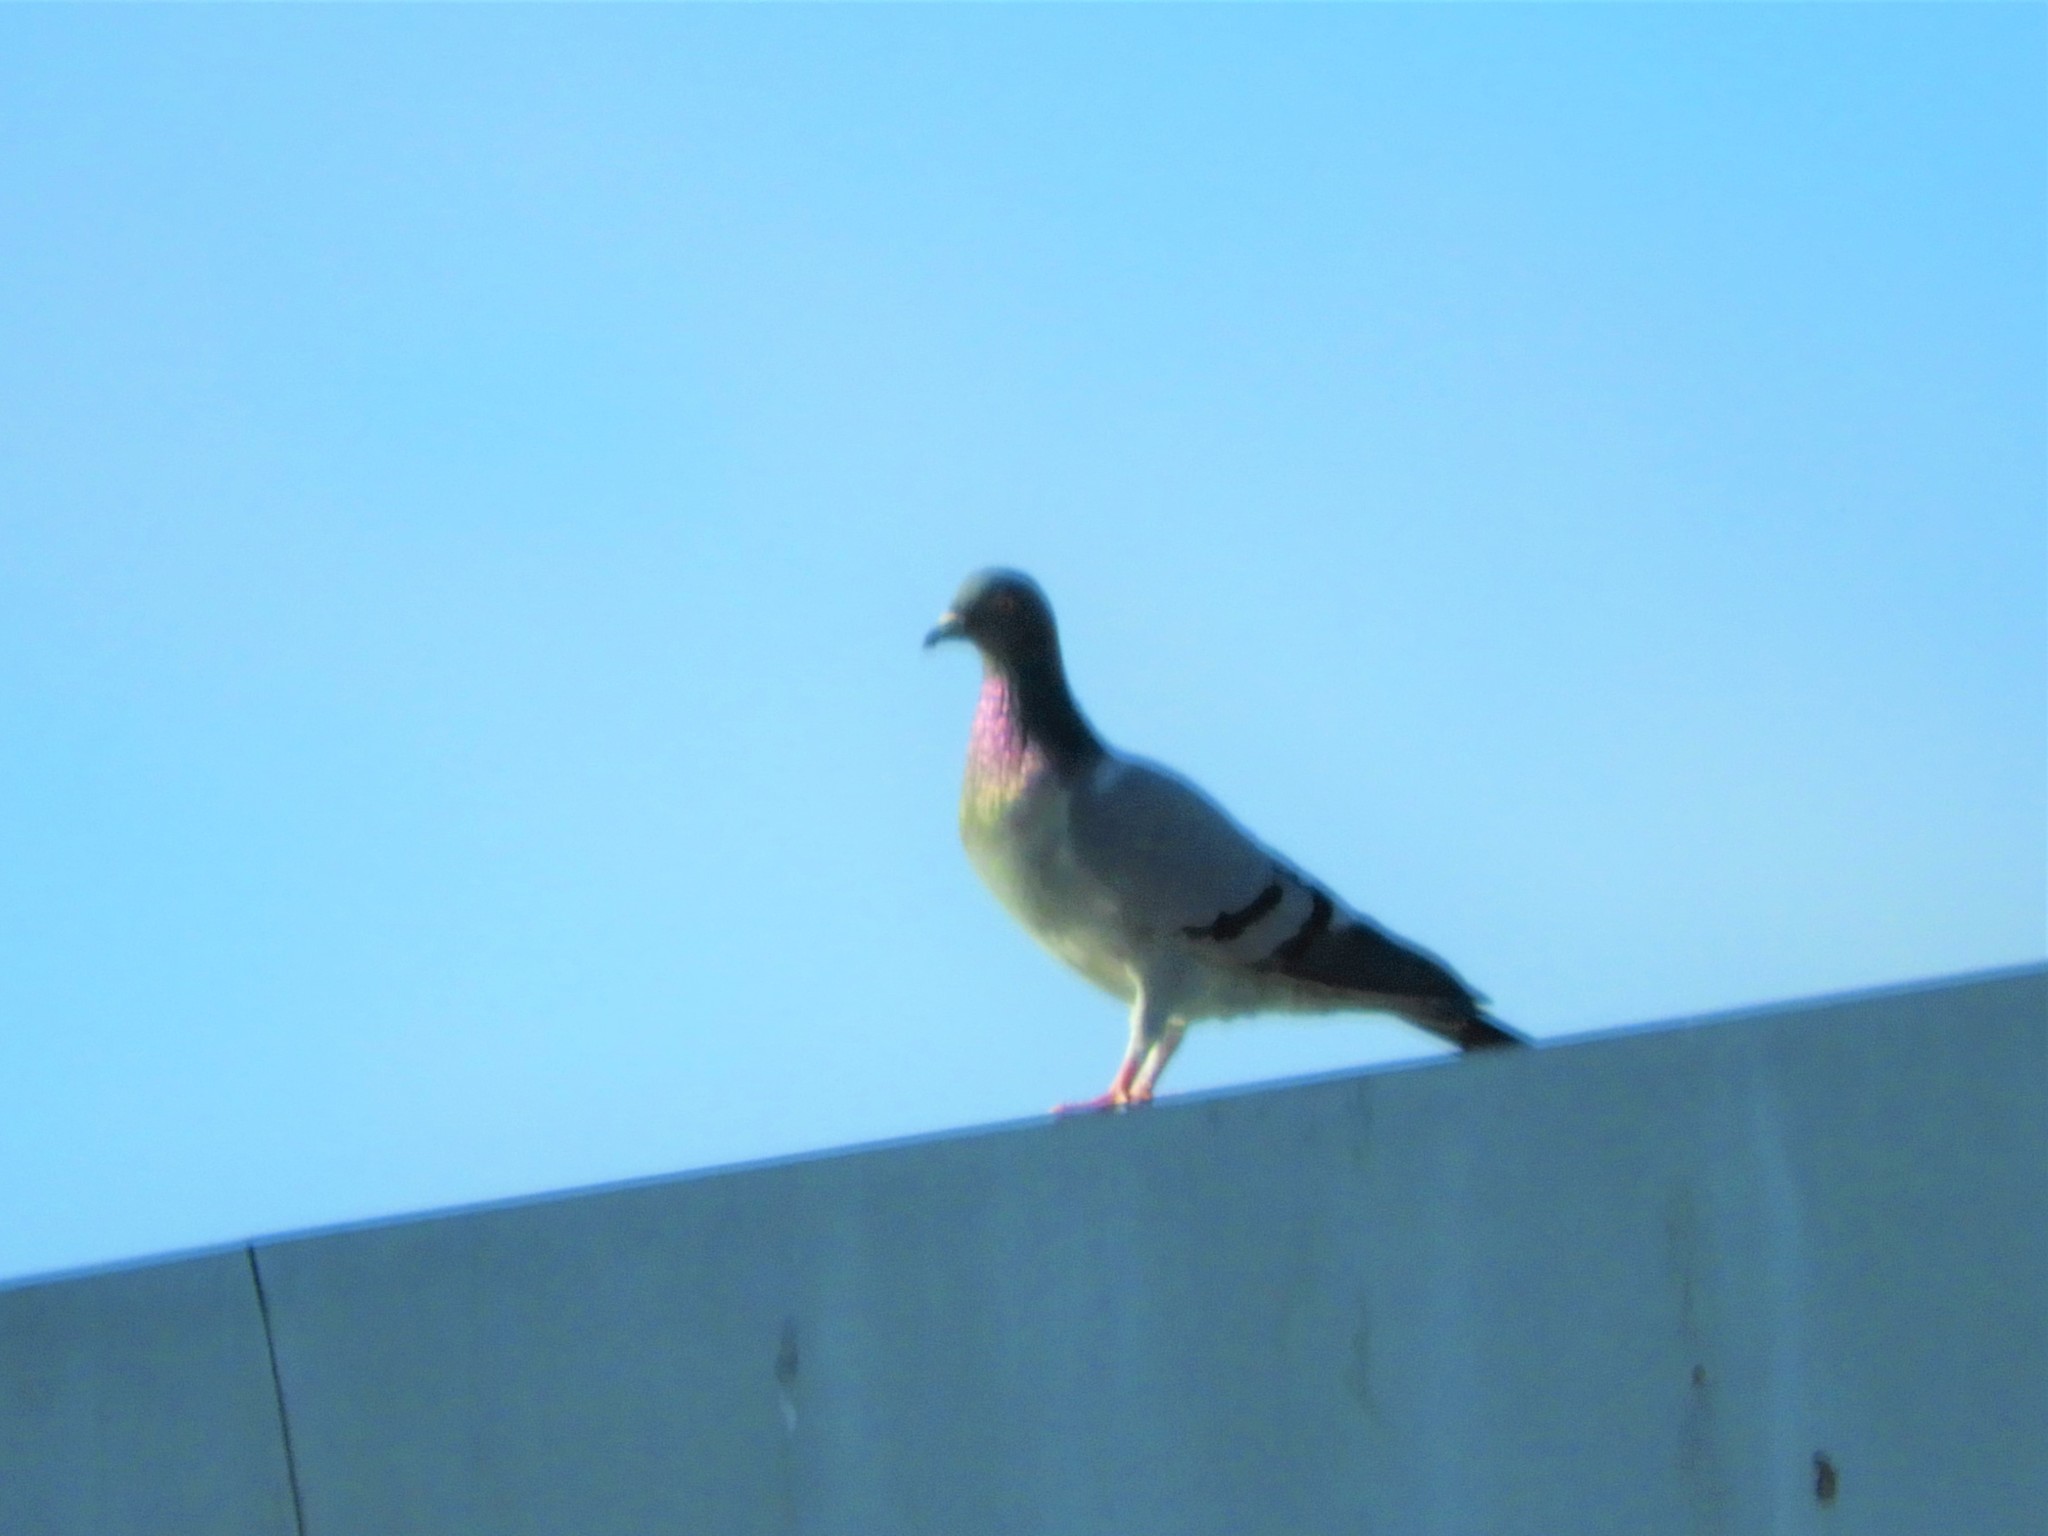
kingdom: Animalia
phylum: Chordata
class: Aves
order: Columbiformes
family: Columbidae
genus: Columba
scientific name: Columba livia
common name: Rock pigeon
